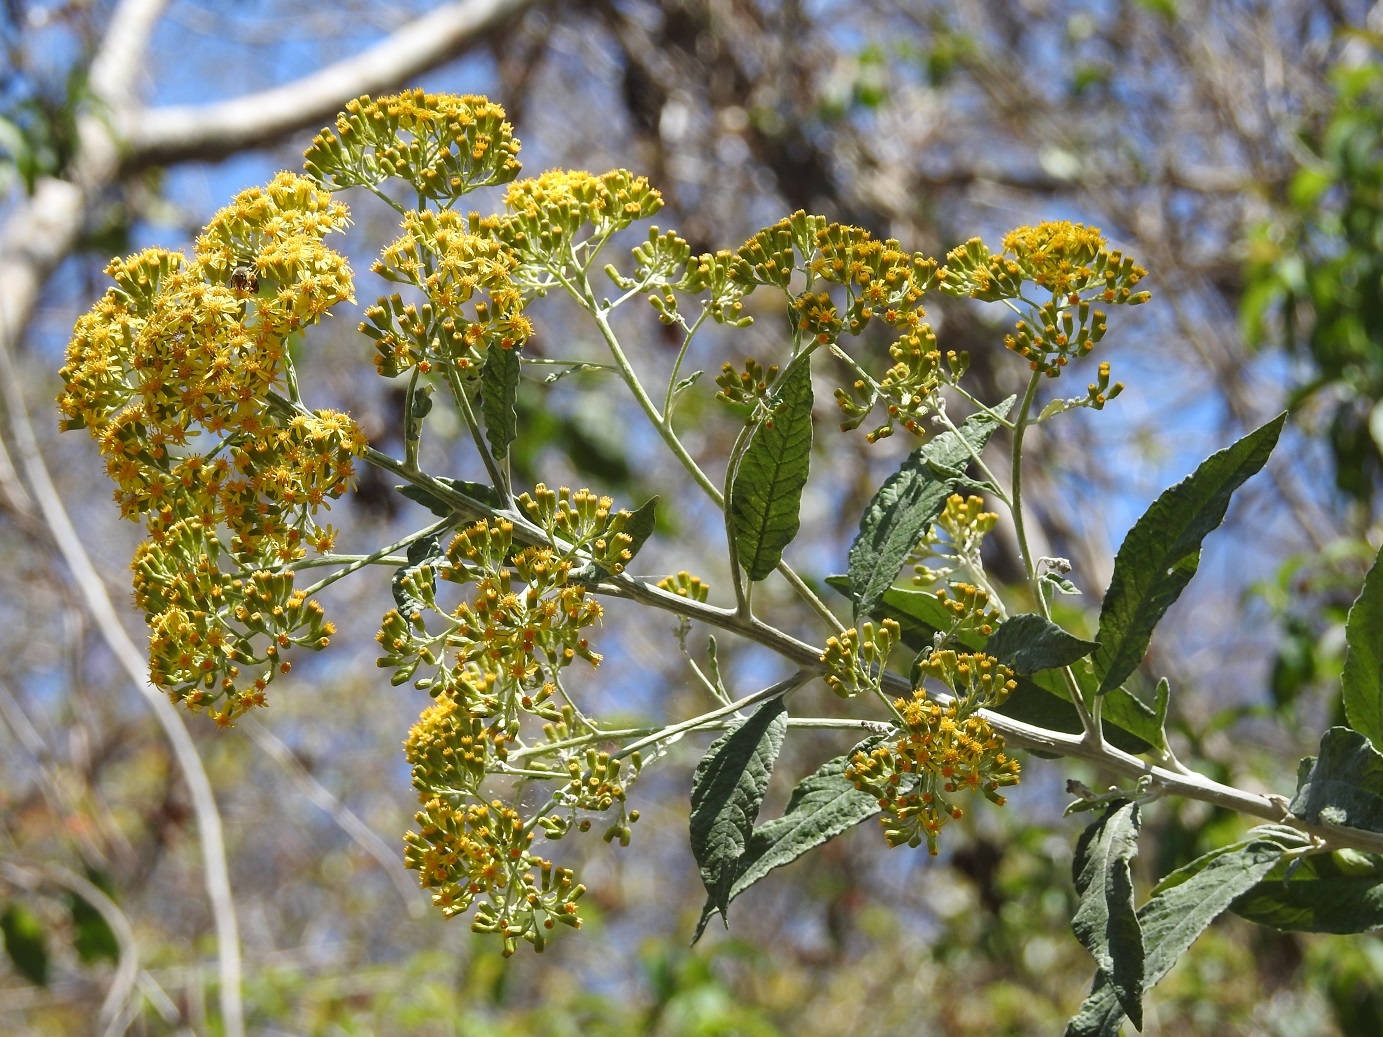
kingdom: Plantae
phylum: Tracheophyta
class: Magnoliopsida
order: Asterales
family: Asteraceae
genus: Zemisia
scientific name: Zemisia thomasii
